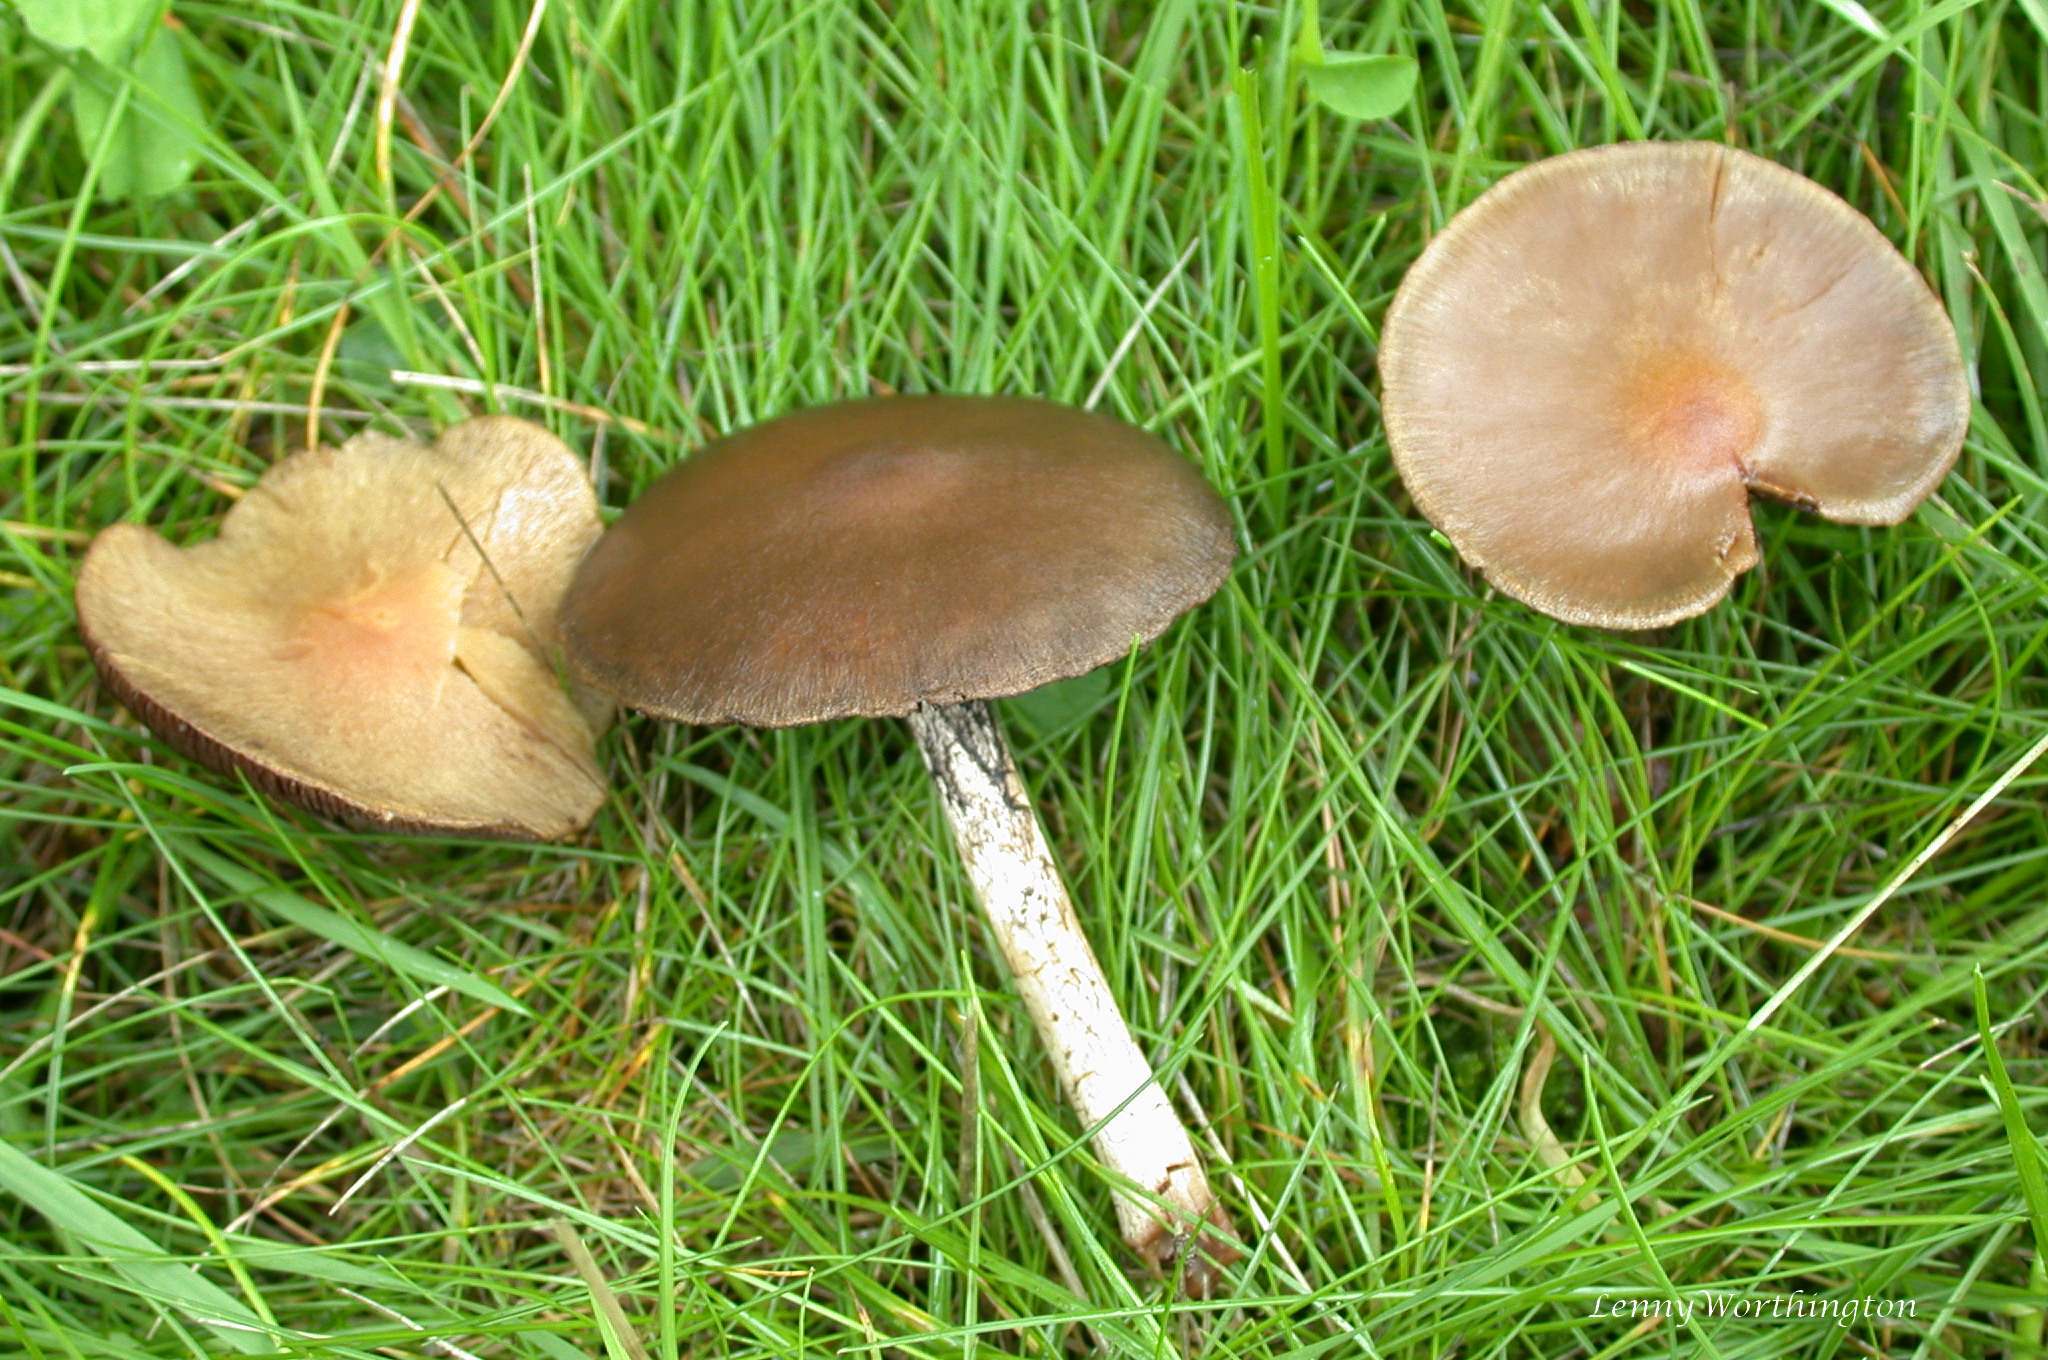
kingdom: Fungi
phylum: Basidiomycota
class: Agaricomycetes
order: Agaricales
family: Psathyrellaceae
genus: Lacrymaria
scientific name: Lacrymaria lacrymabunda
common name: Weeping widow
